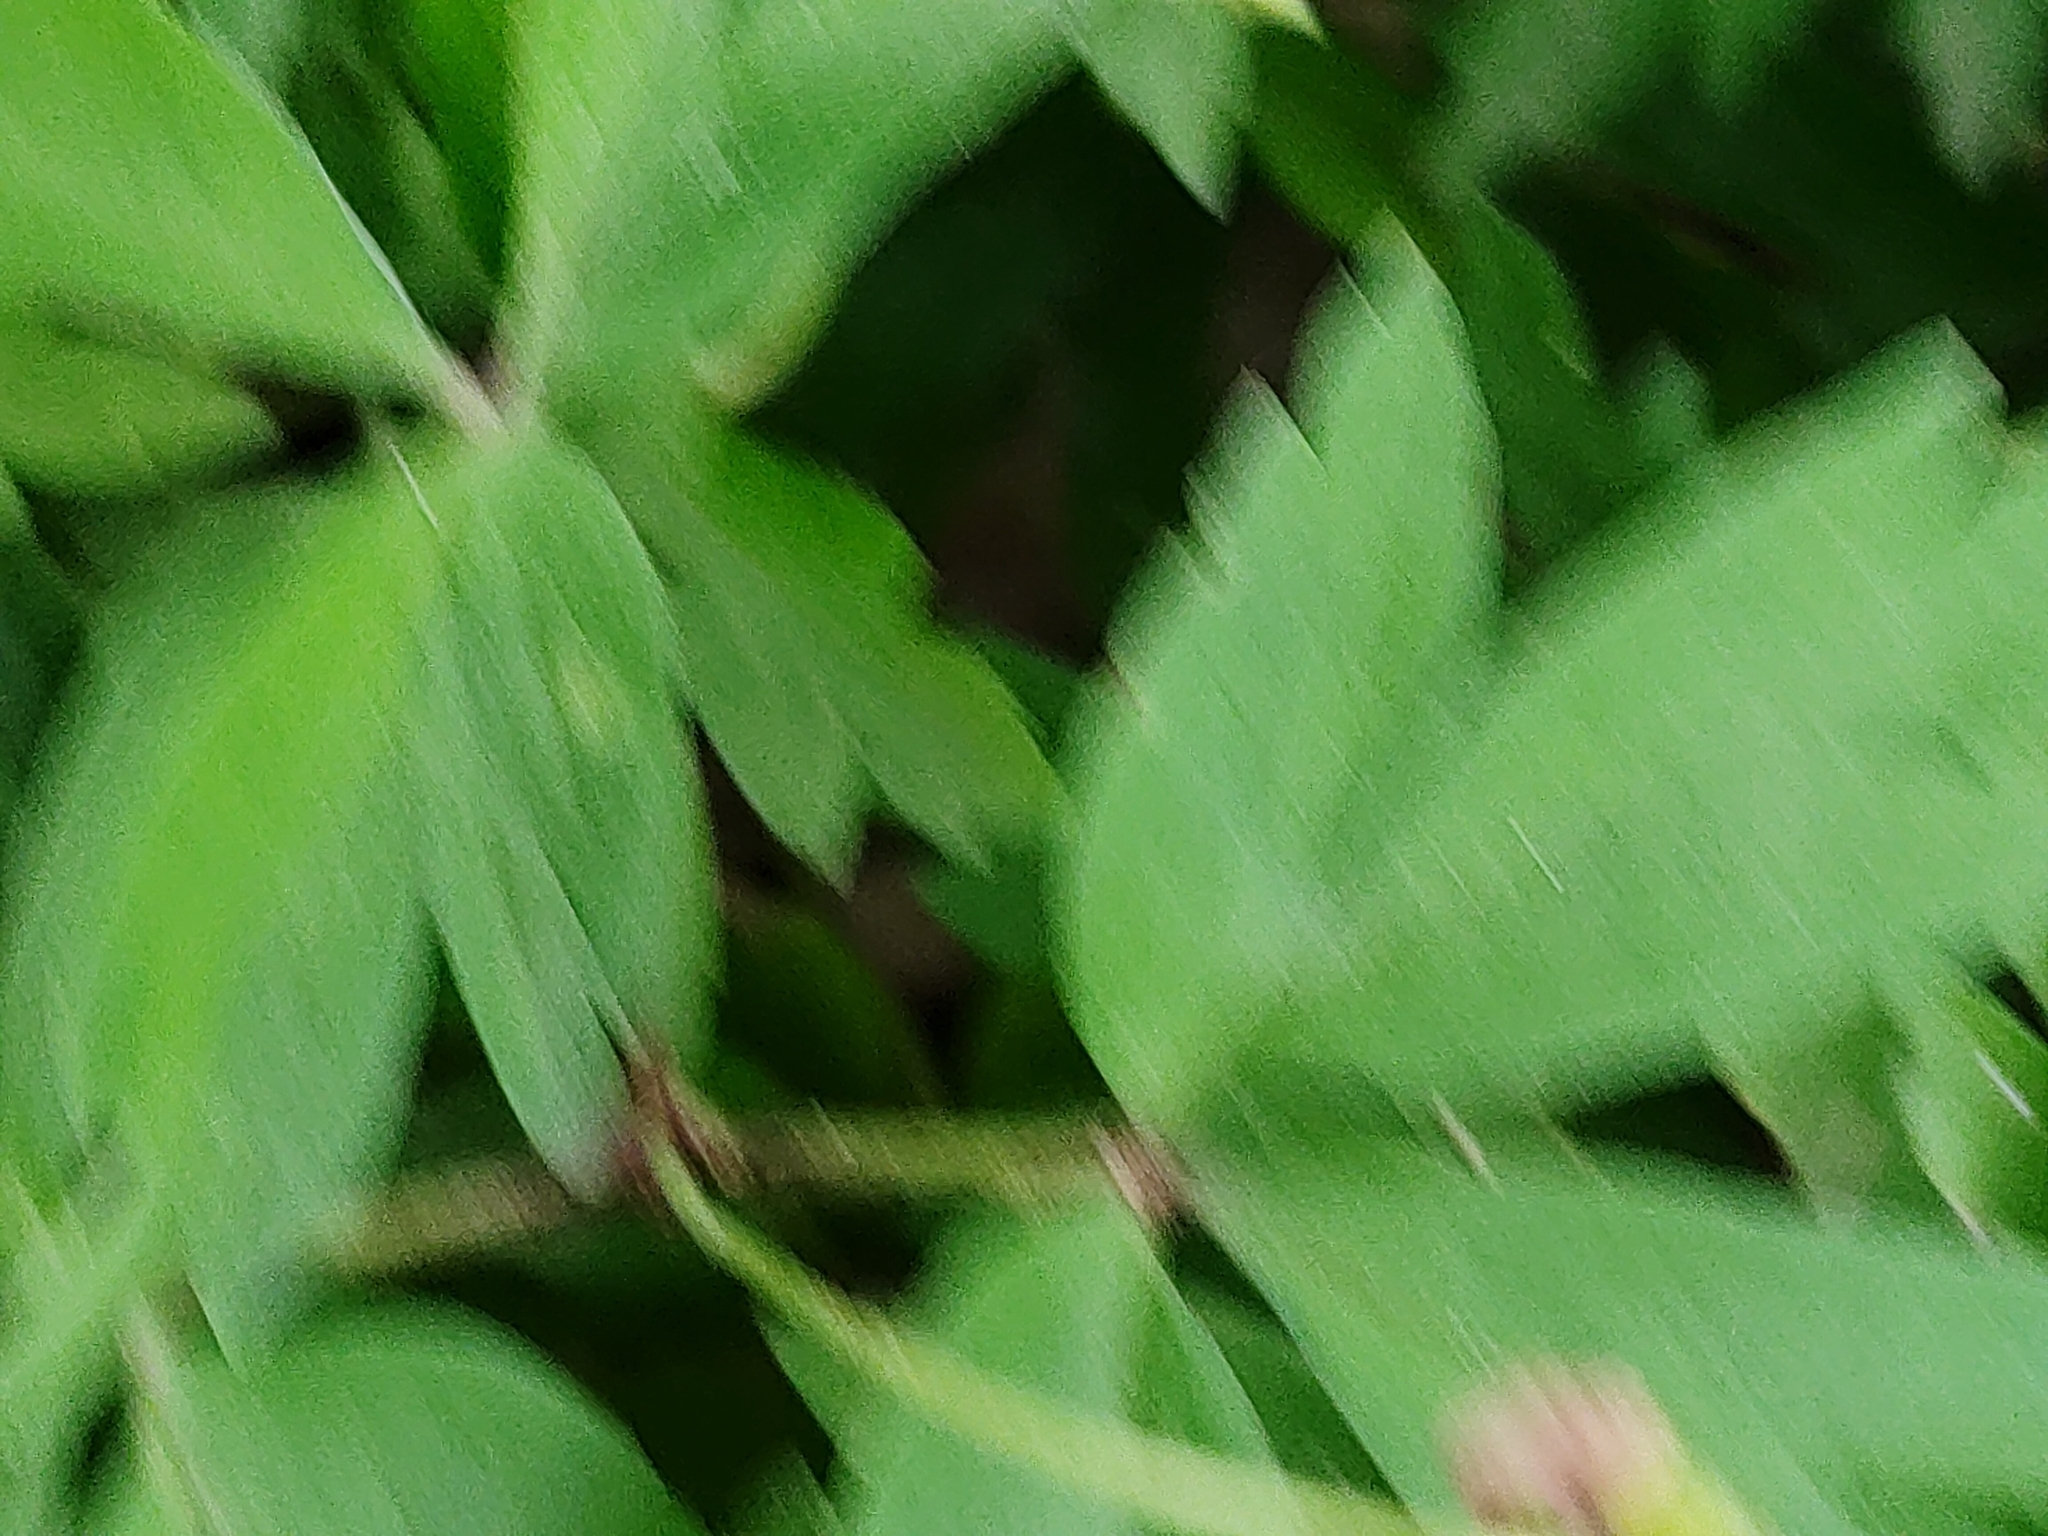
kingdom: Plantae
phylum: Tracheophyta
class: Magnoliopsida
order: Ranunculales
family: Ranunculaceae
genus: Anemone
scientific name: Anemone nemorosa
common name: Wood anemone
